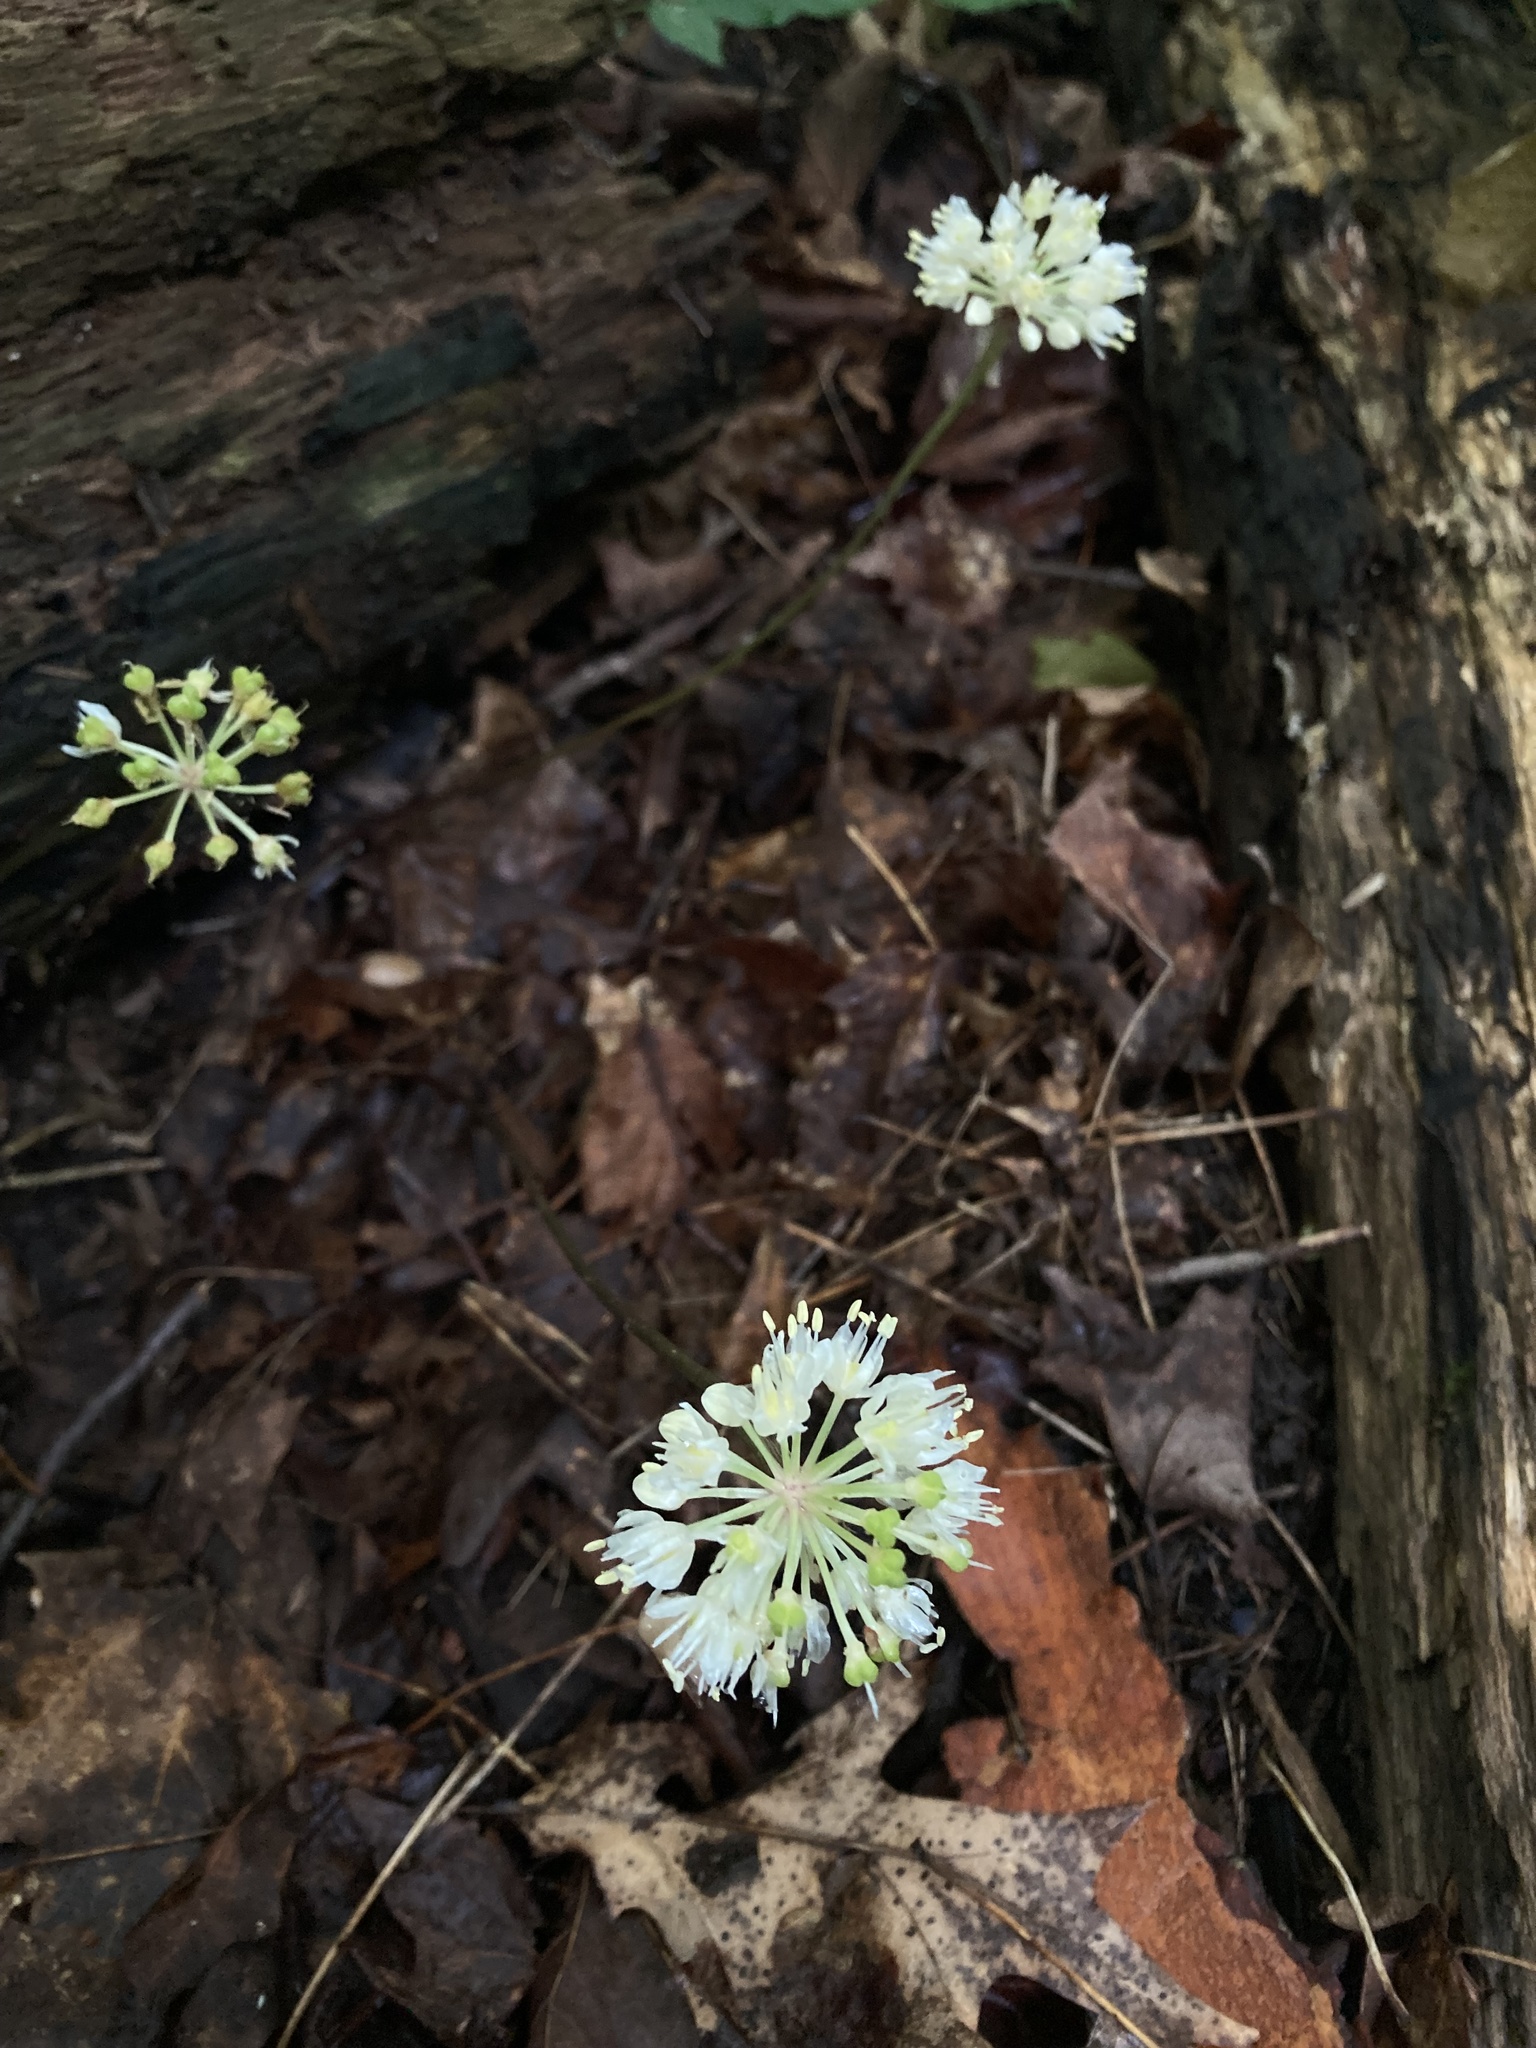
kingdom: Plantae
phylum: Tracheophyta
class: Liliopsida
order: Asparagales
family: Amaryllidaceae
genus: Allium
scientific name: Allium tricoccum
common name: Ramp
